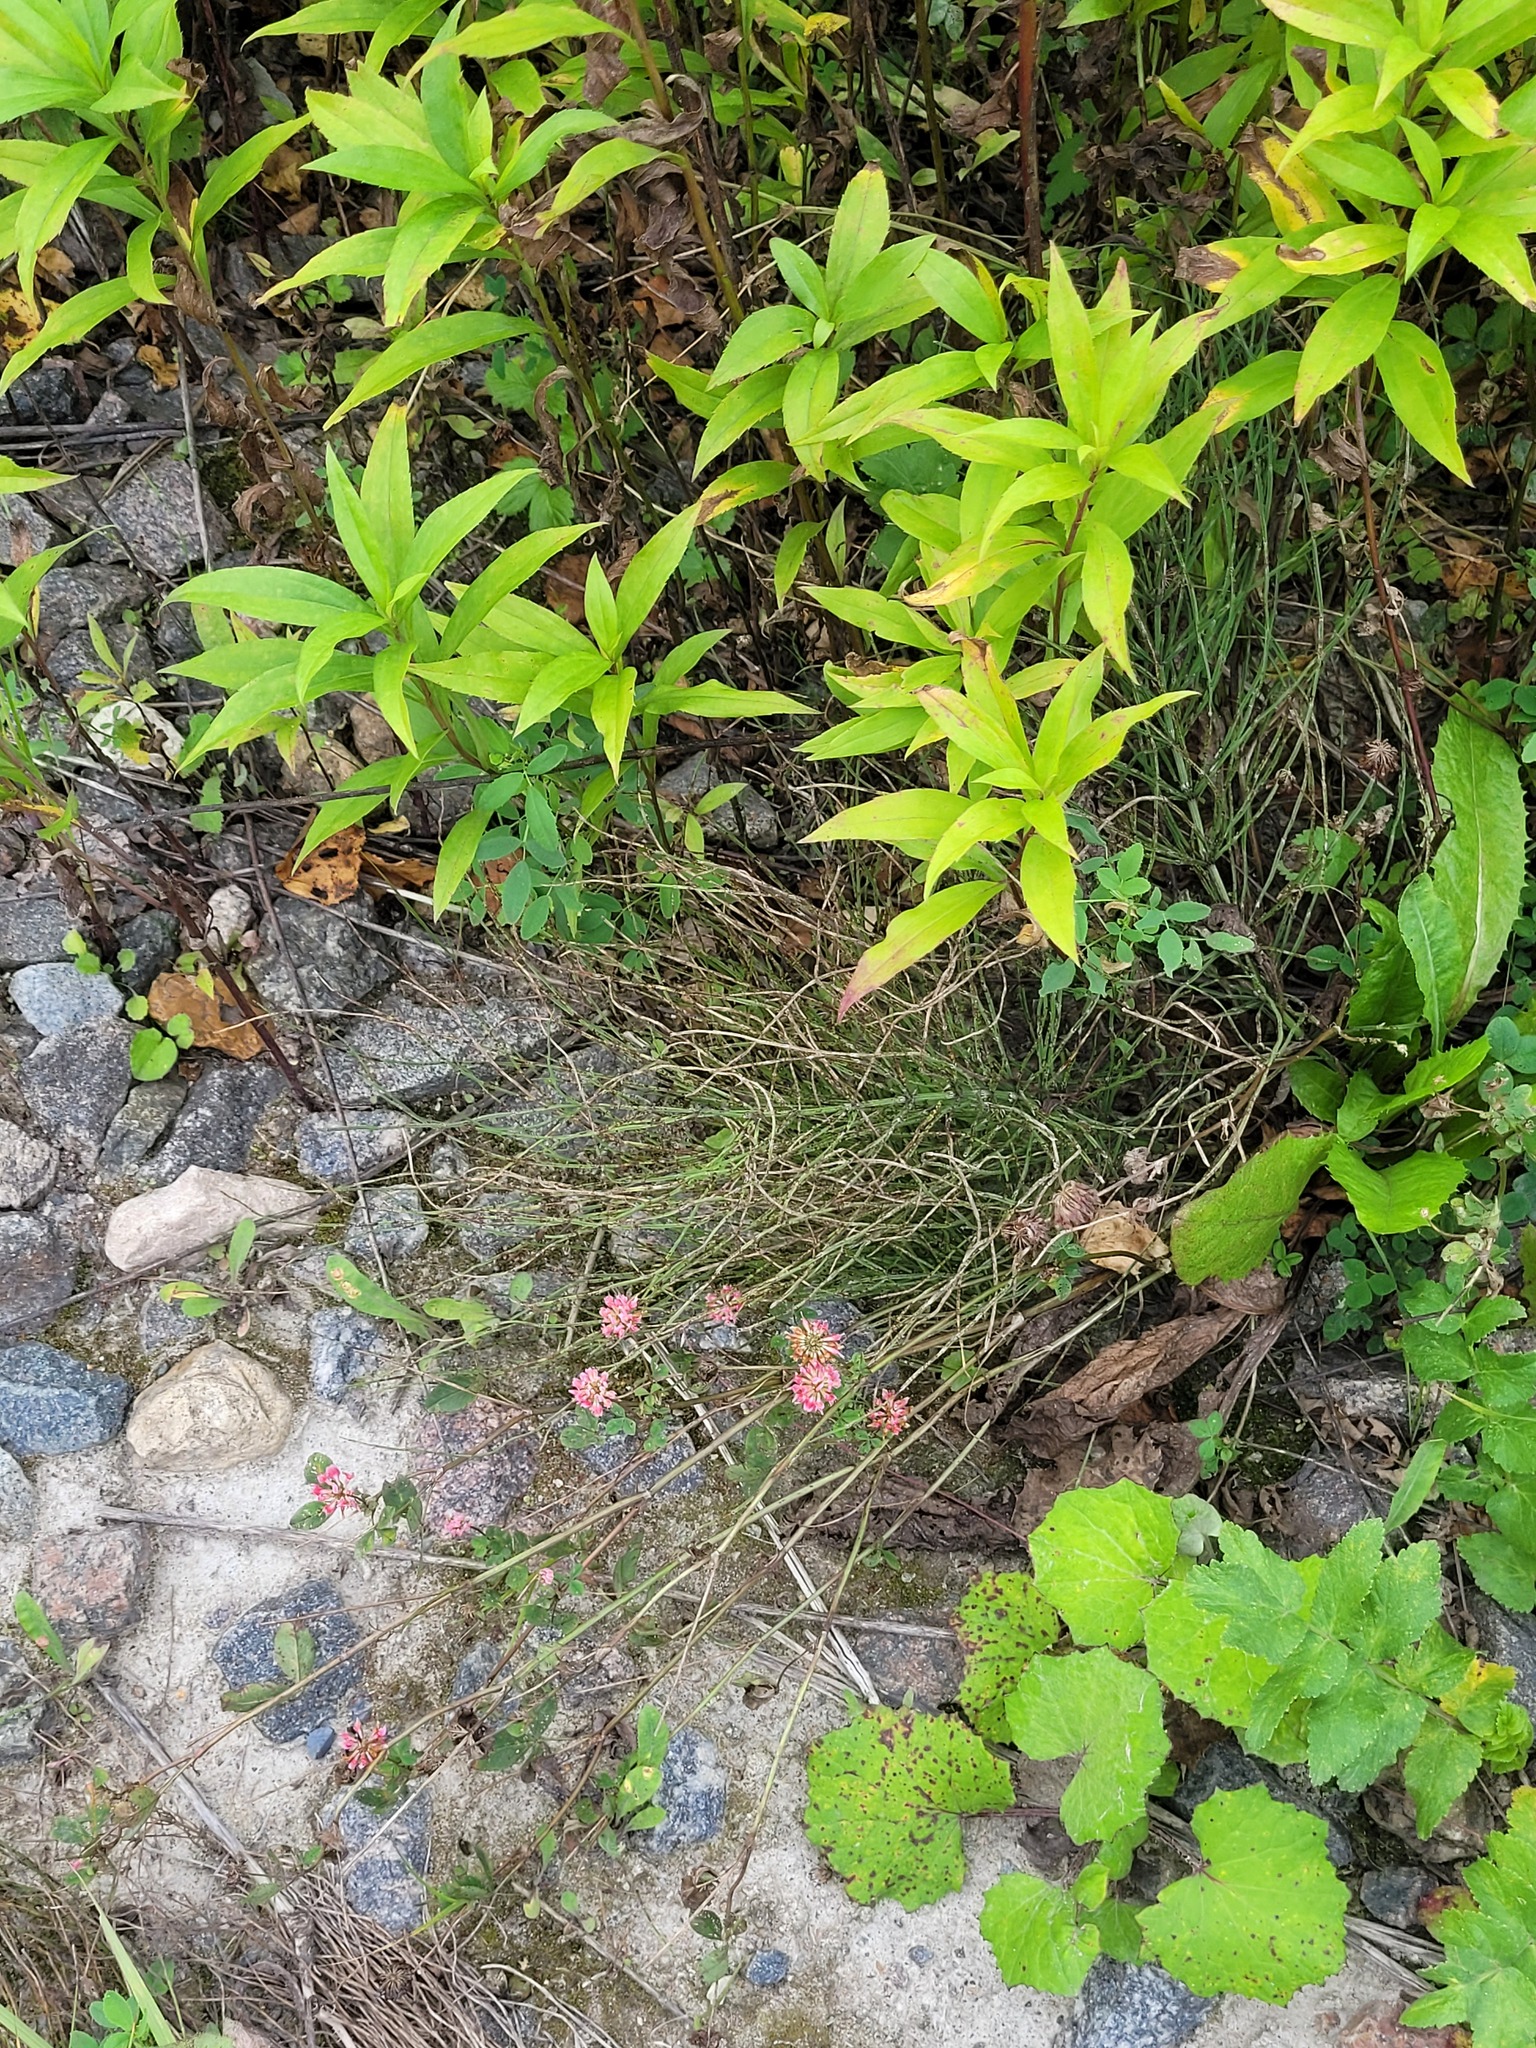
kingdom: Plantae
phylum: Tracheophyta
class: Magnoliopsida
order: Fabales
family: Fabaceae
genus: Trifolium
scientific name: Trifolium hybridum
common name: Alsike clover
